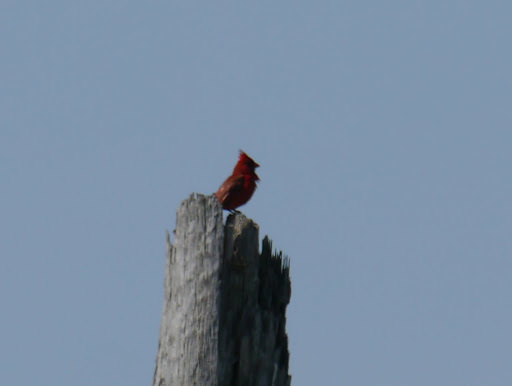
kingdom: Animalia
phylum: Chordata
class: Aves
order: Passeriformes
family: Cardinalidae
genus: Cardinalis
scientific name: Cardinalis cardinalis
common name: Northern cardinal
